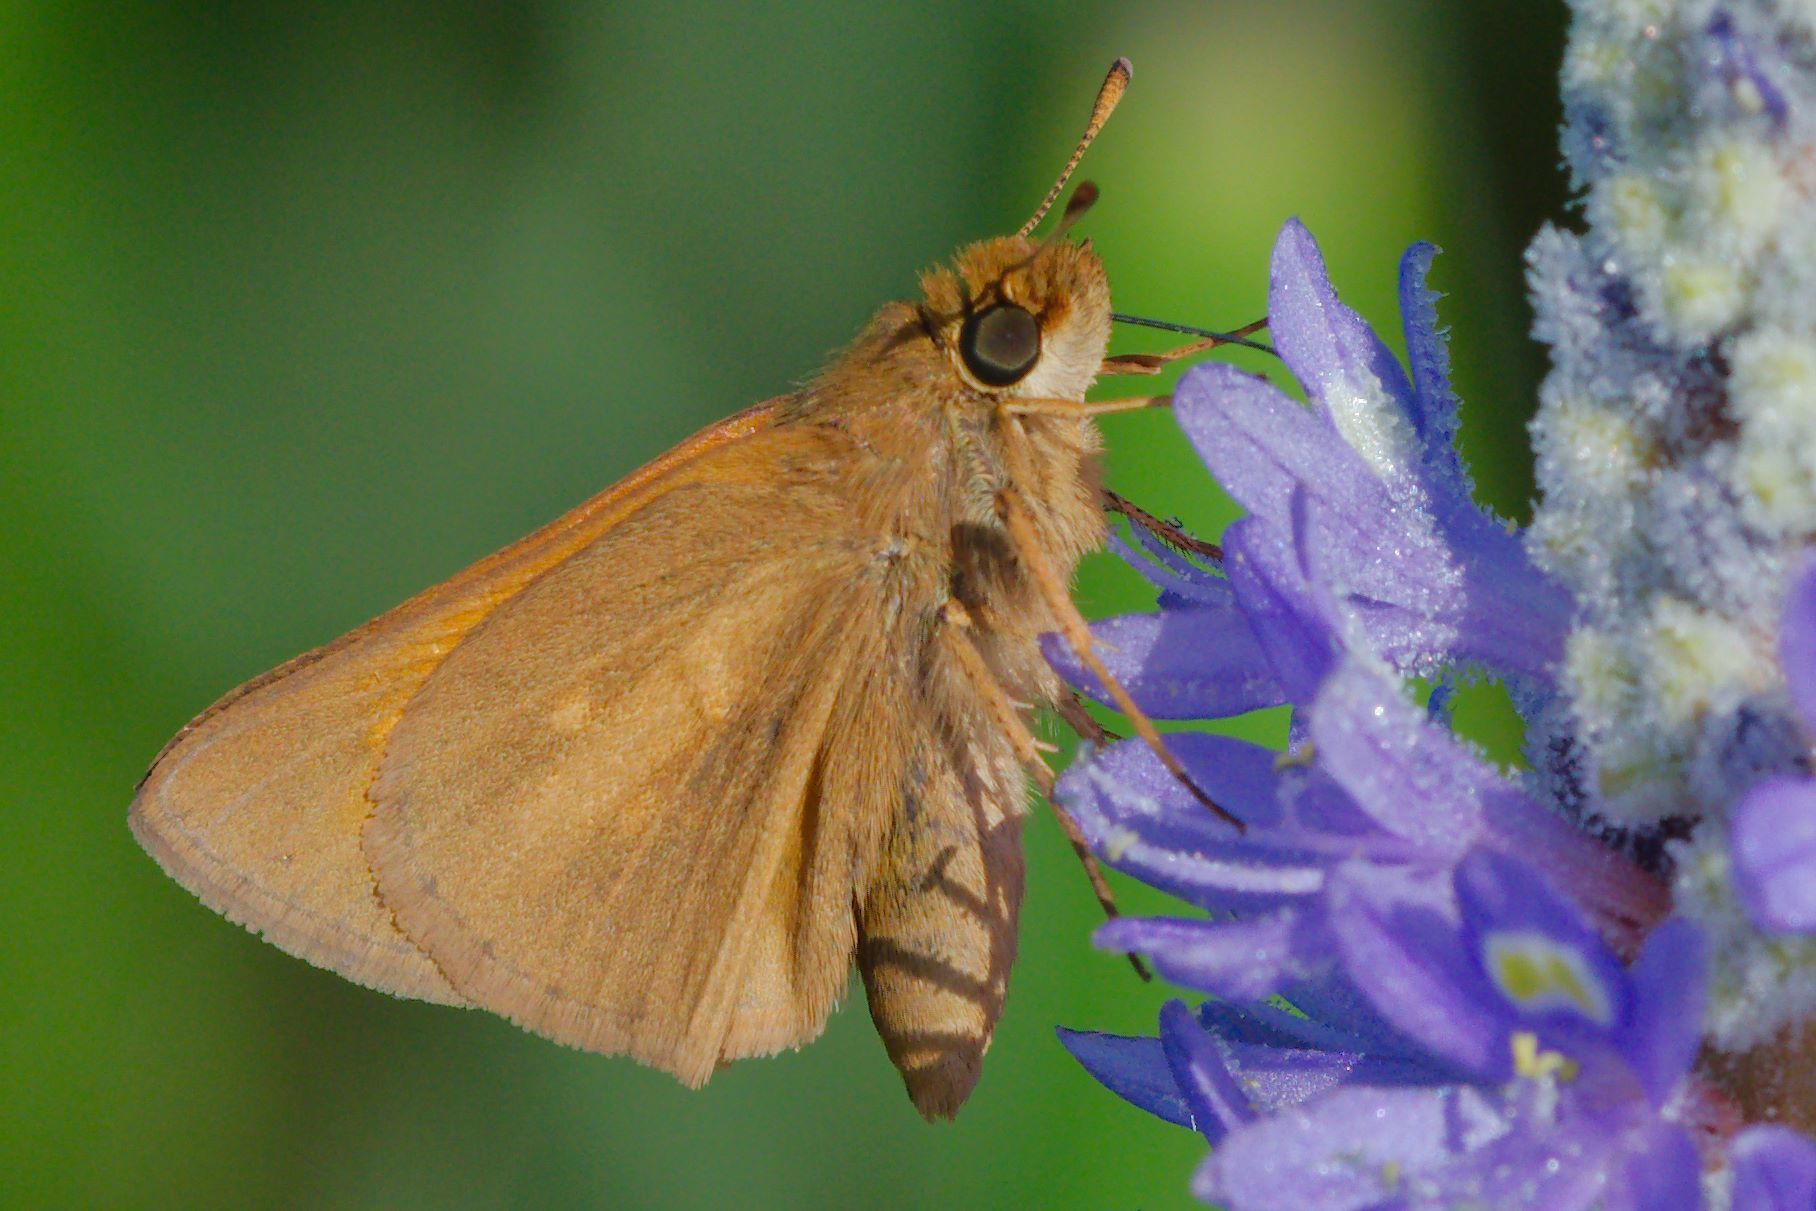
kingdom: Animalia
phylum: Arthropoda
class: Insecta
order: Lepidoptera
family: Hesperiidae
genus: Poanes
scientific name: Poanes aaroni
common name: Aaron's skipper
